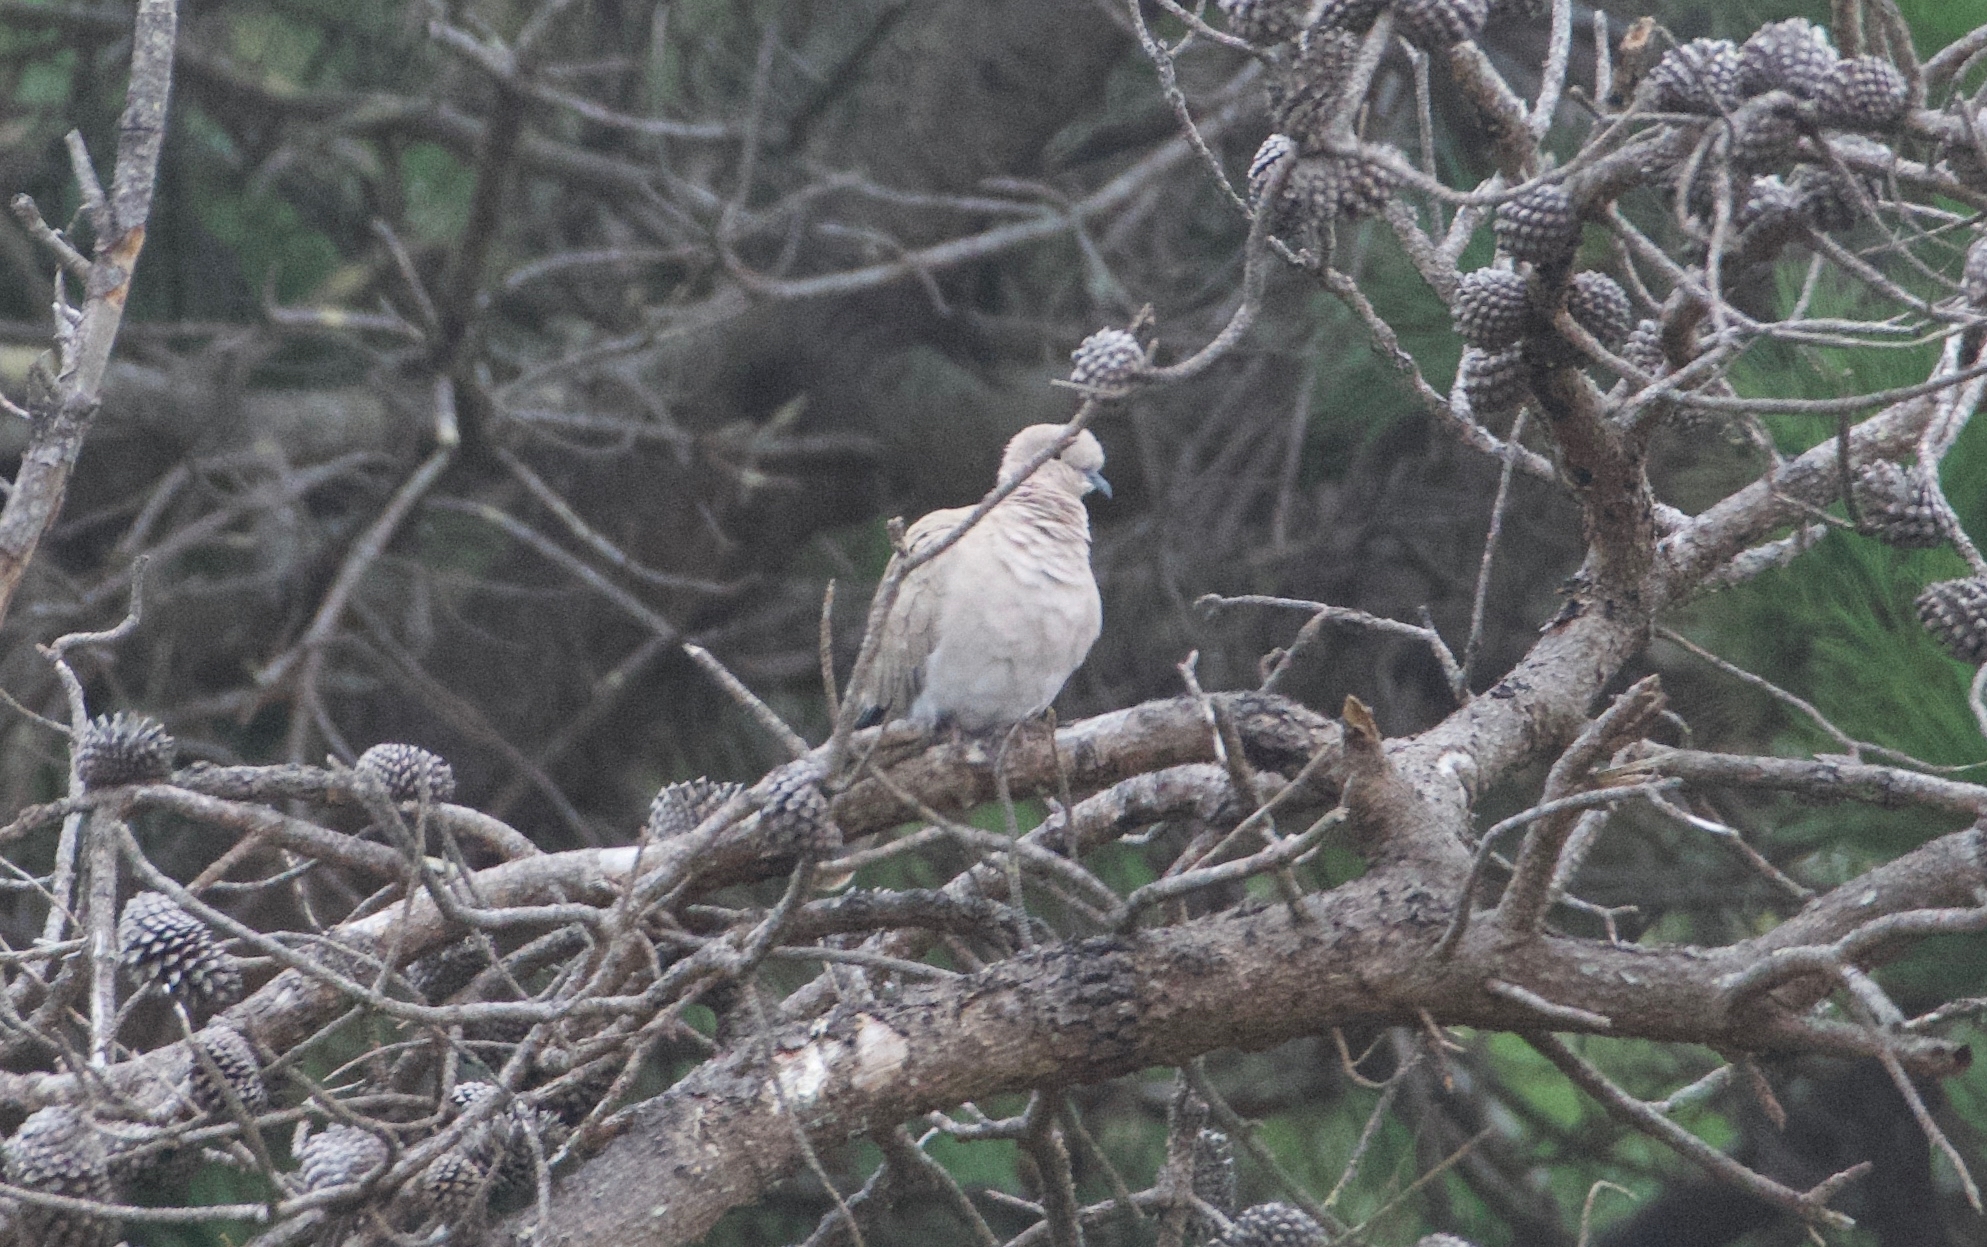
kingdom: Animalia
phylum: Chordata
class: Aves
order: Columbiformes
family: Columbidae
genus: Streptopelia
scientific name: Streptopelia decaocto
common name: Eurasian collared dove
